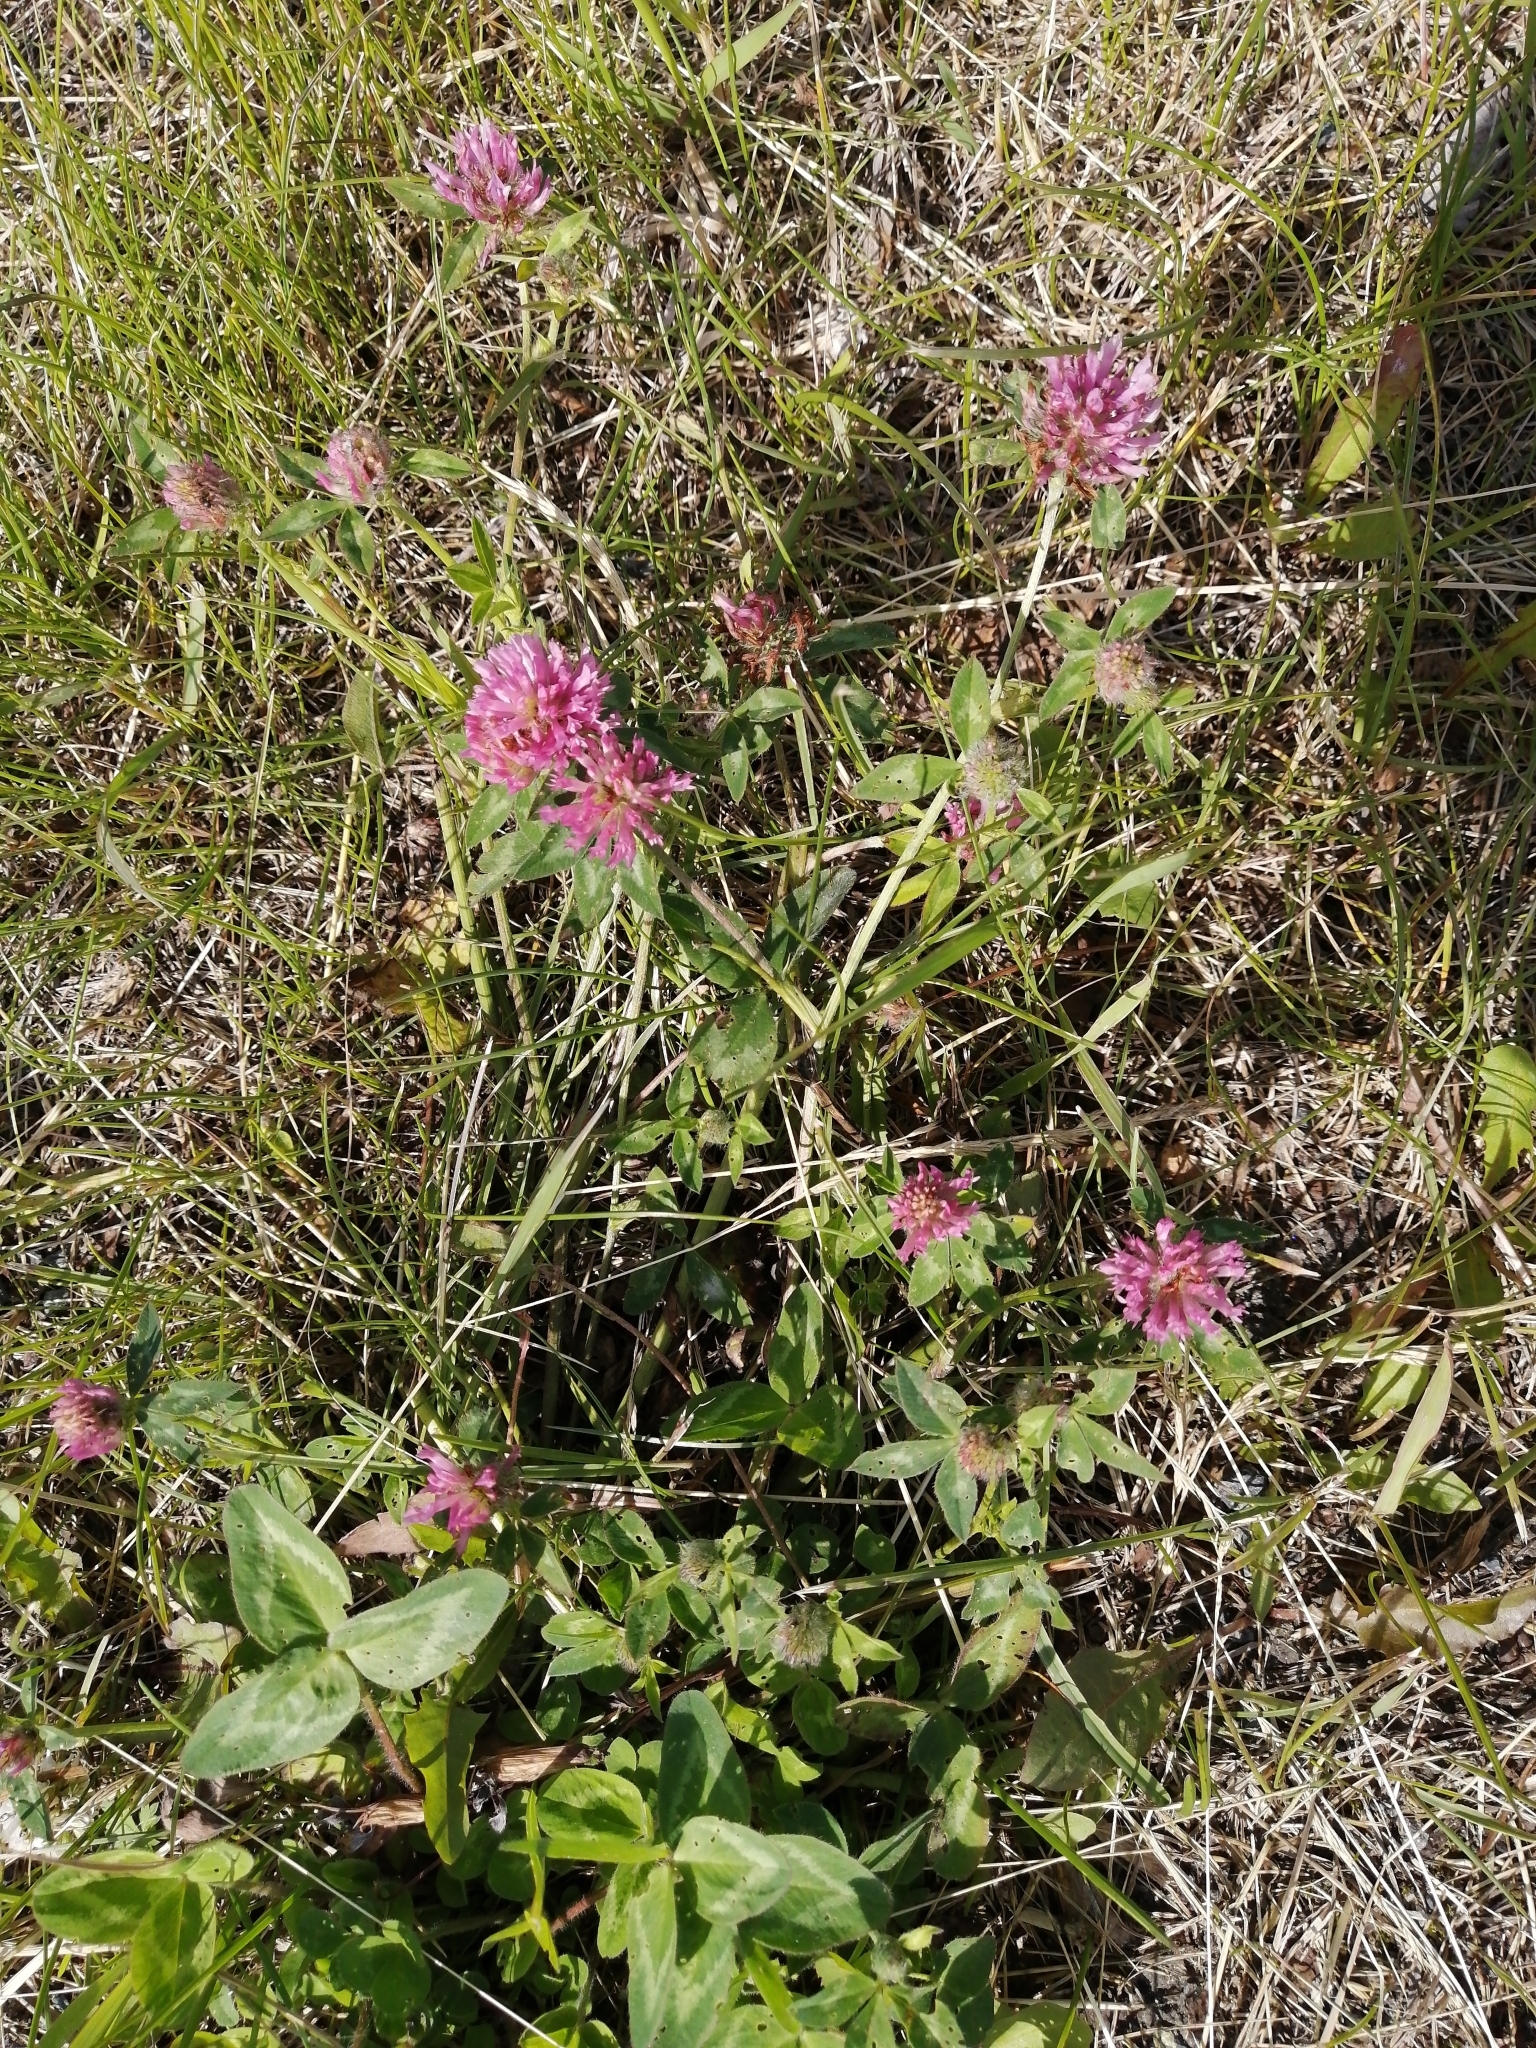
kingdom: Plantae
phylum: Tracheophyta
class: Magnoliopsida
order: Fabales
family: Fabaceae
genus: Trifolium
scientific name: Trifolium pratense
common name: Red clover
